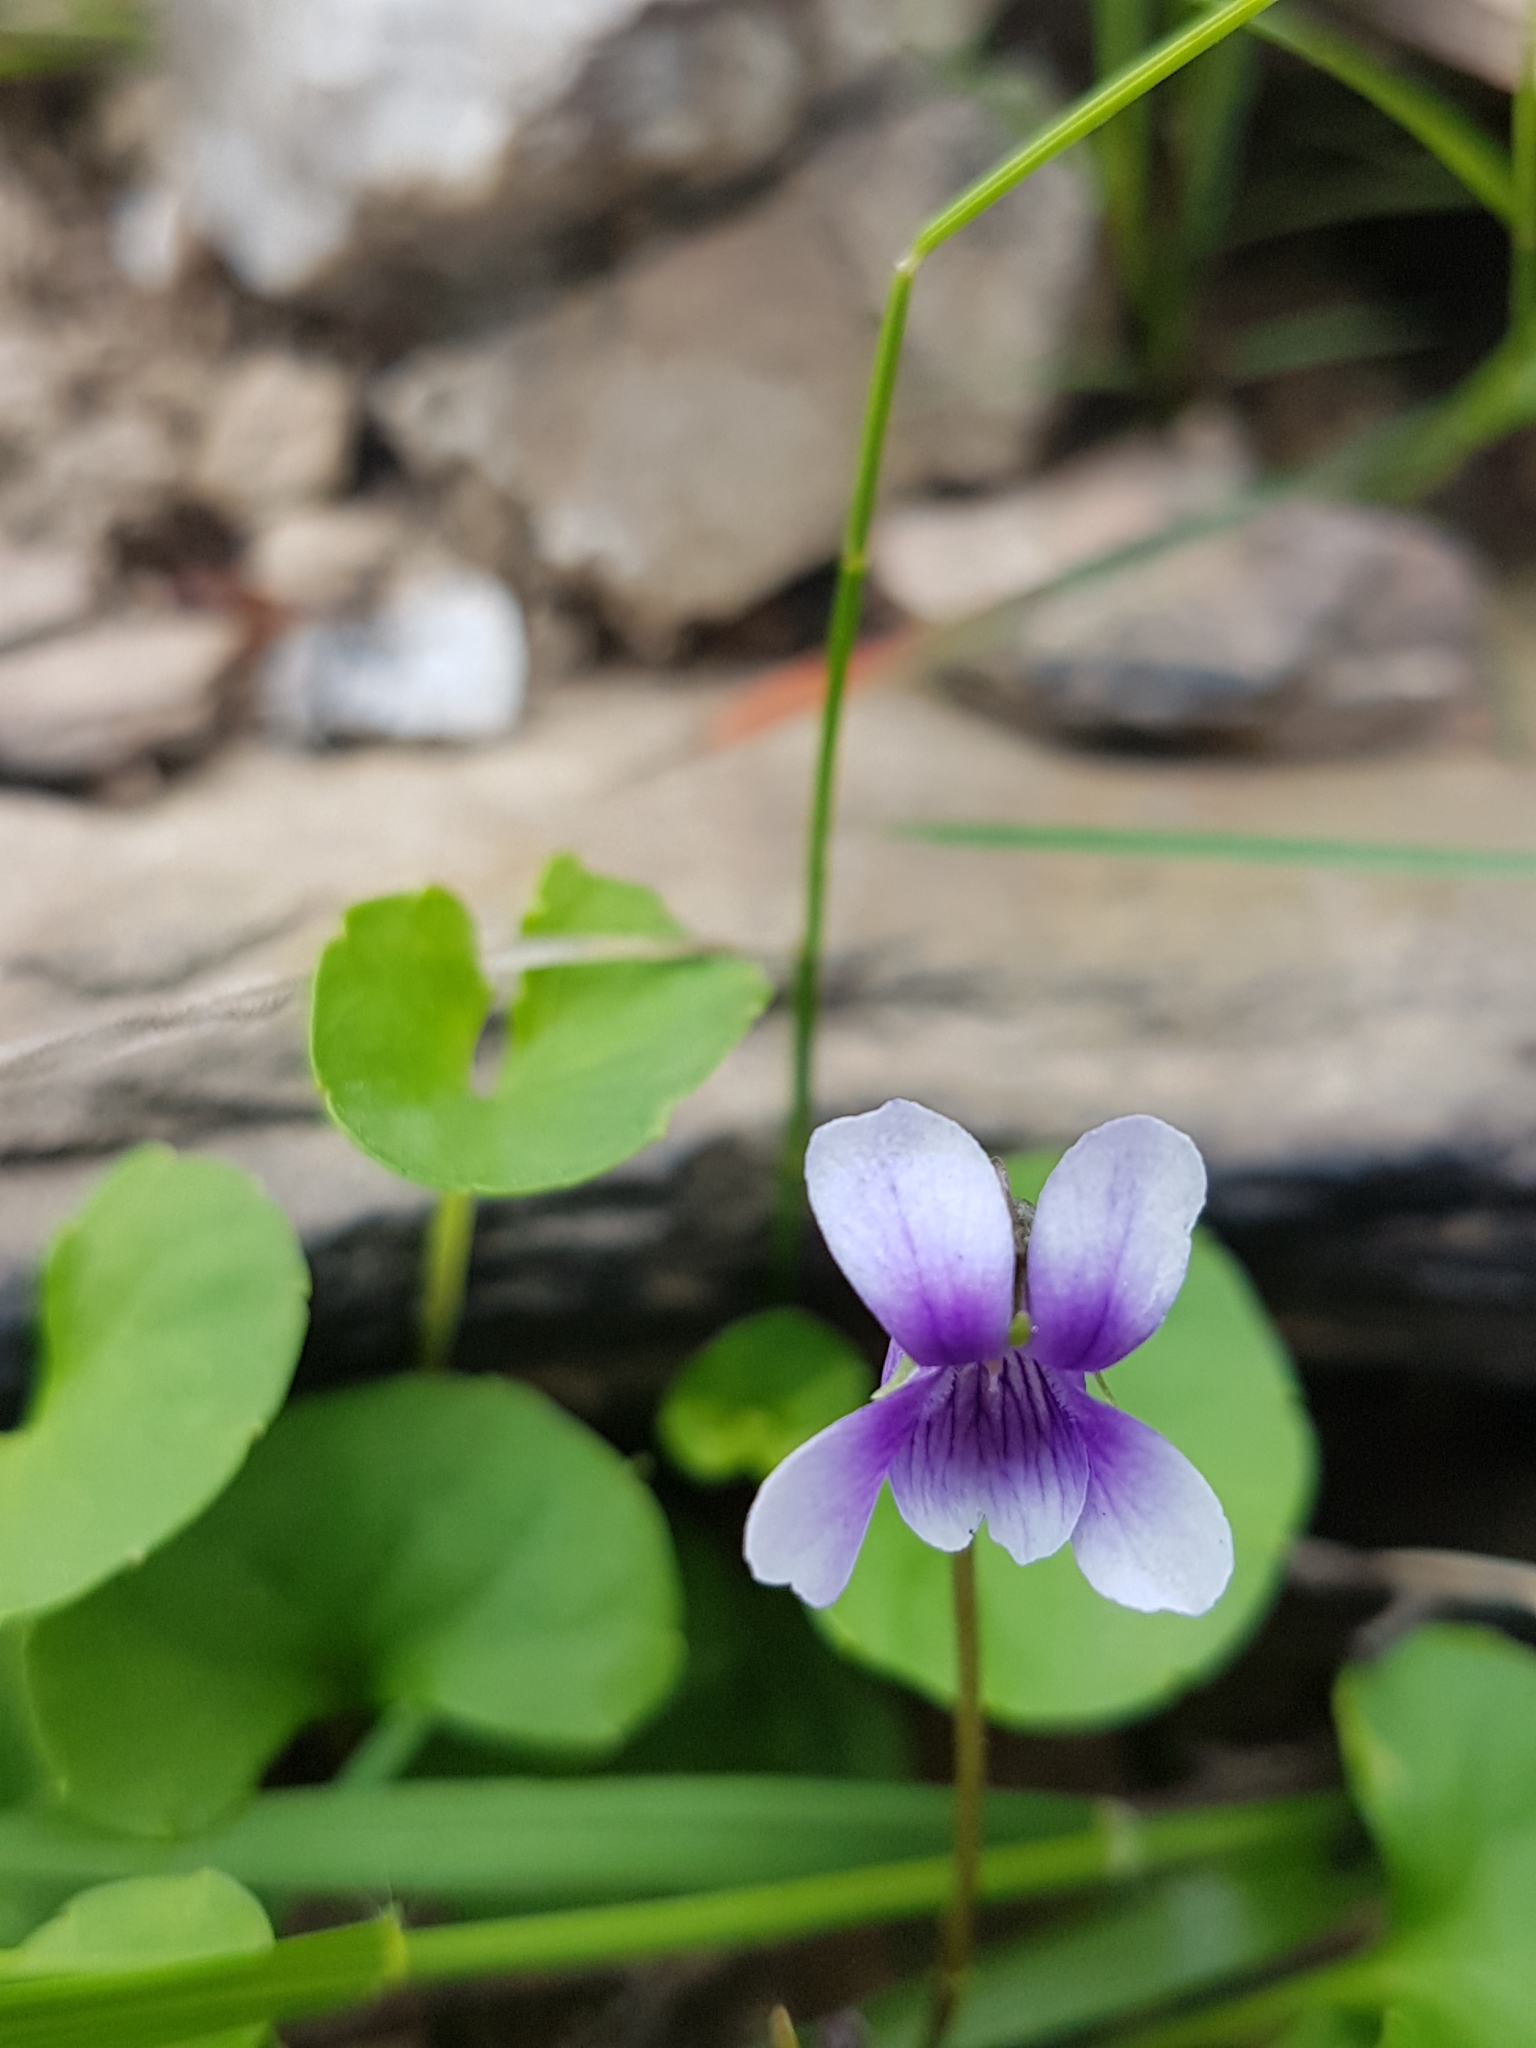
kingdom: Plantae
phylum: Tracheophyta
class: Magnoliopsida
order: Malpighiales
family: Violaceae
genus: Viola
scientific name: Viola hederacea
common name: Australian violet
